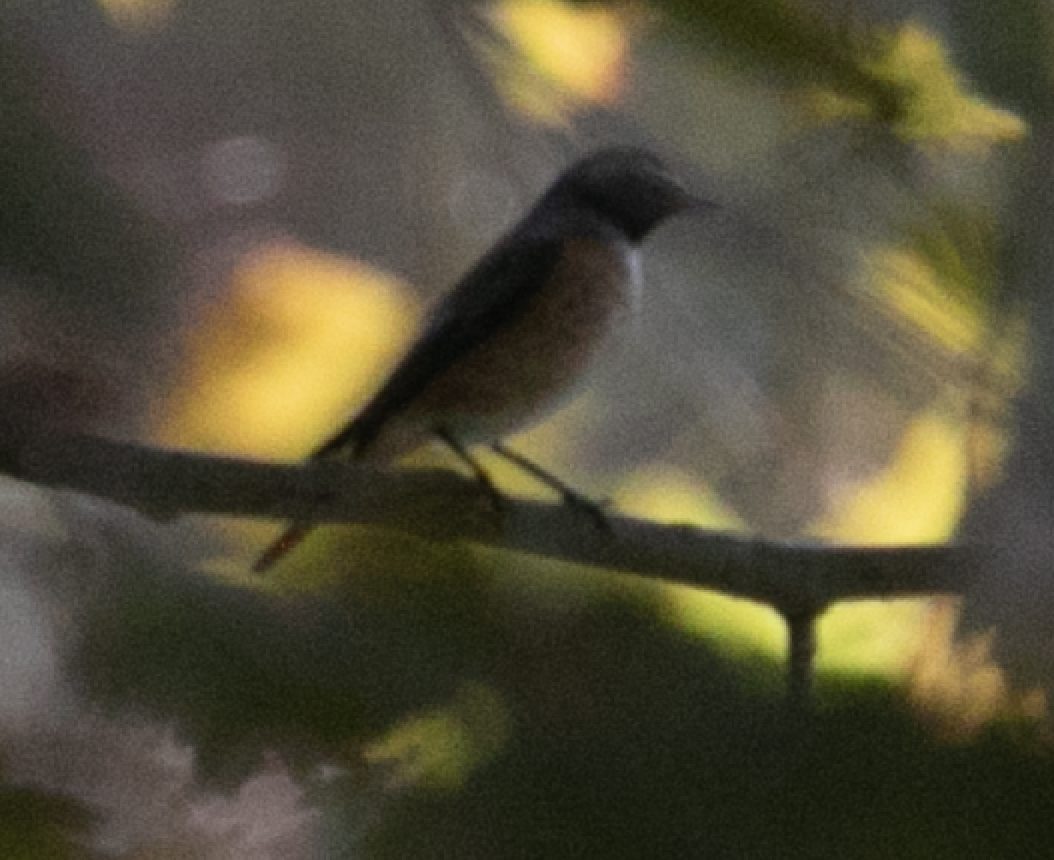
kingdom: Animalia
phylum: Chordata
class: Aves
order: Passeriformes
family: Muscicapidae
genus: Phoenicurus
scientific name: Phoenicurus phoenicurus
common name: Common redstart
